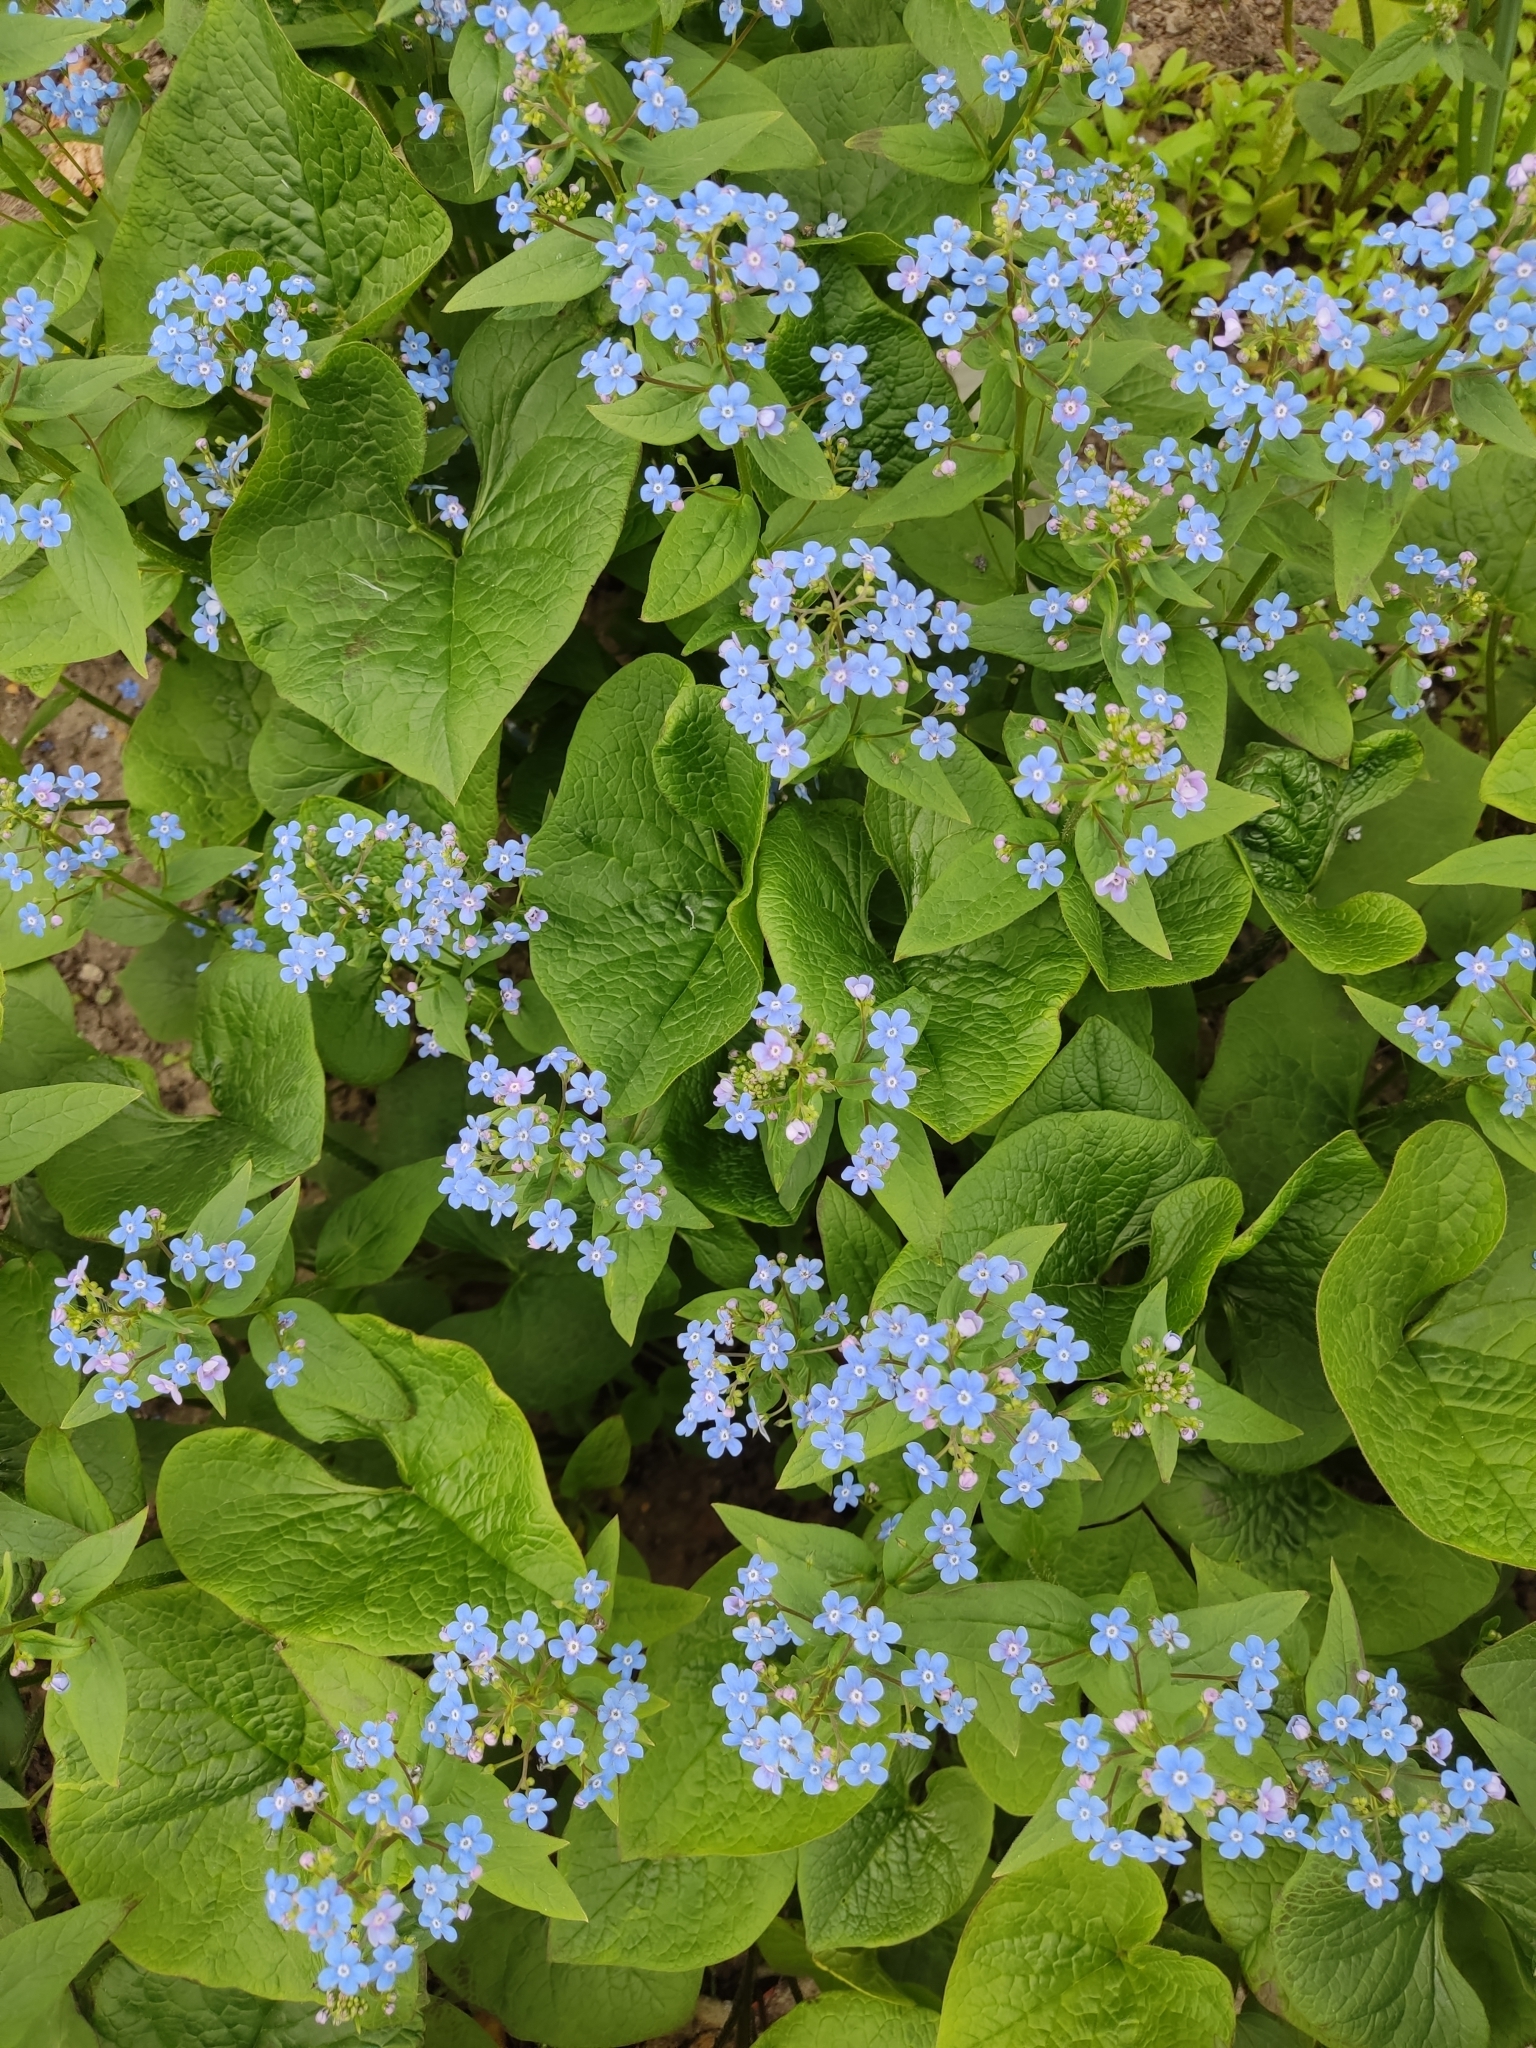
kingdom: Plantae
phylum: Tracheophyta
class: Magnoliopsida
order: Boraginales
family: Boraginaceae
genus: Brunnera
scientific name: Brunnera sibirica
